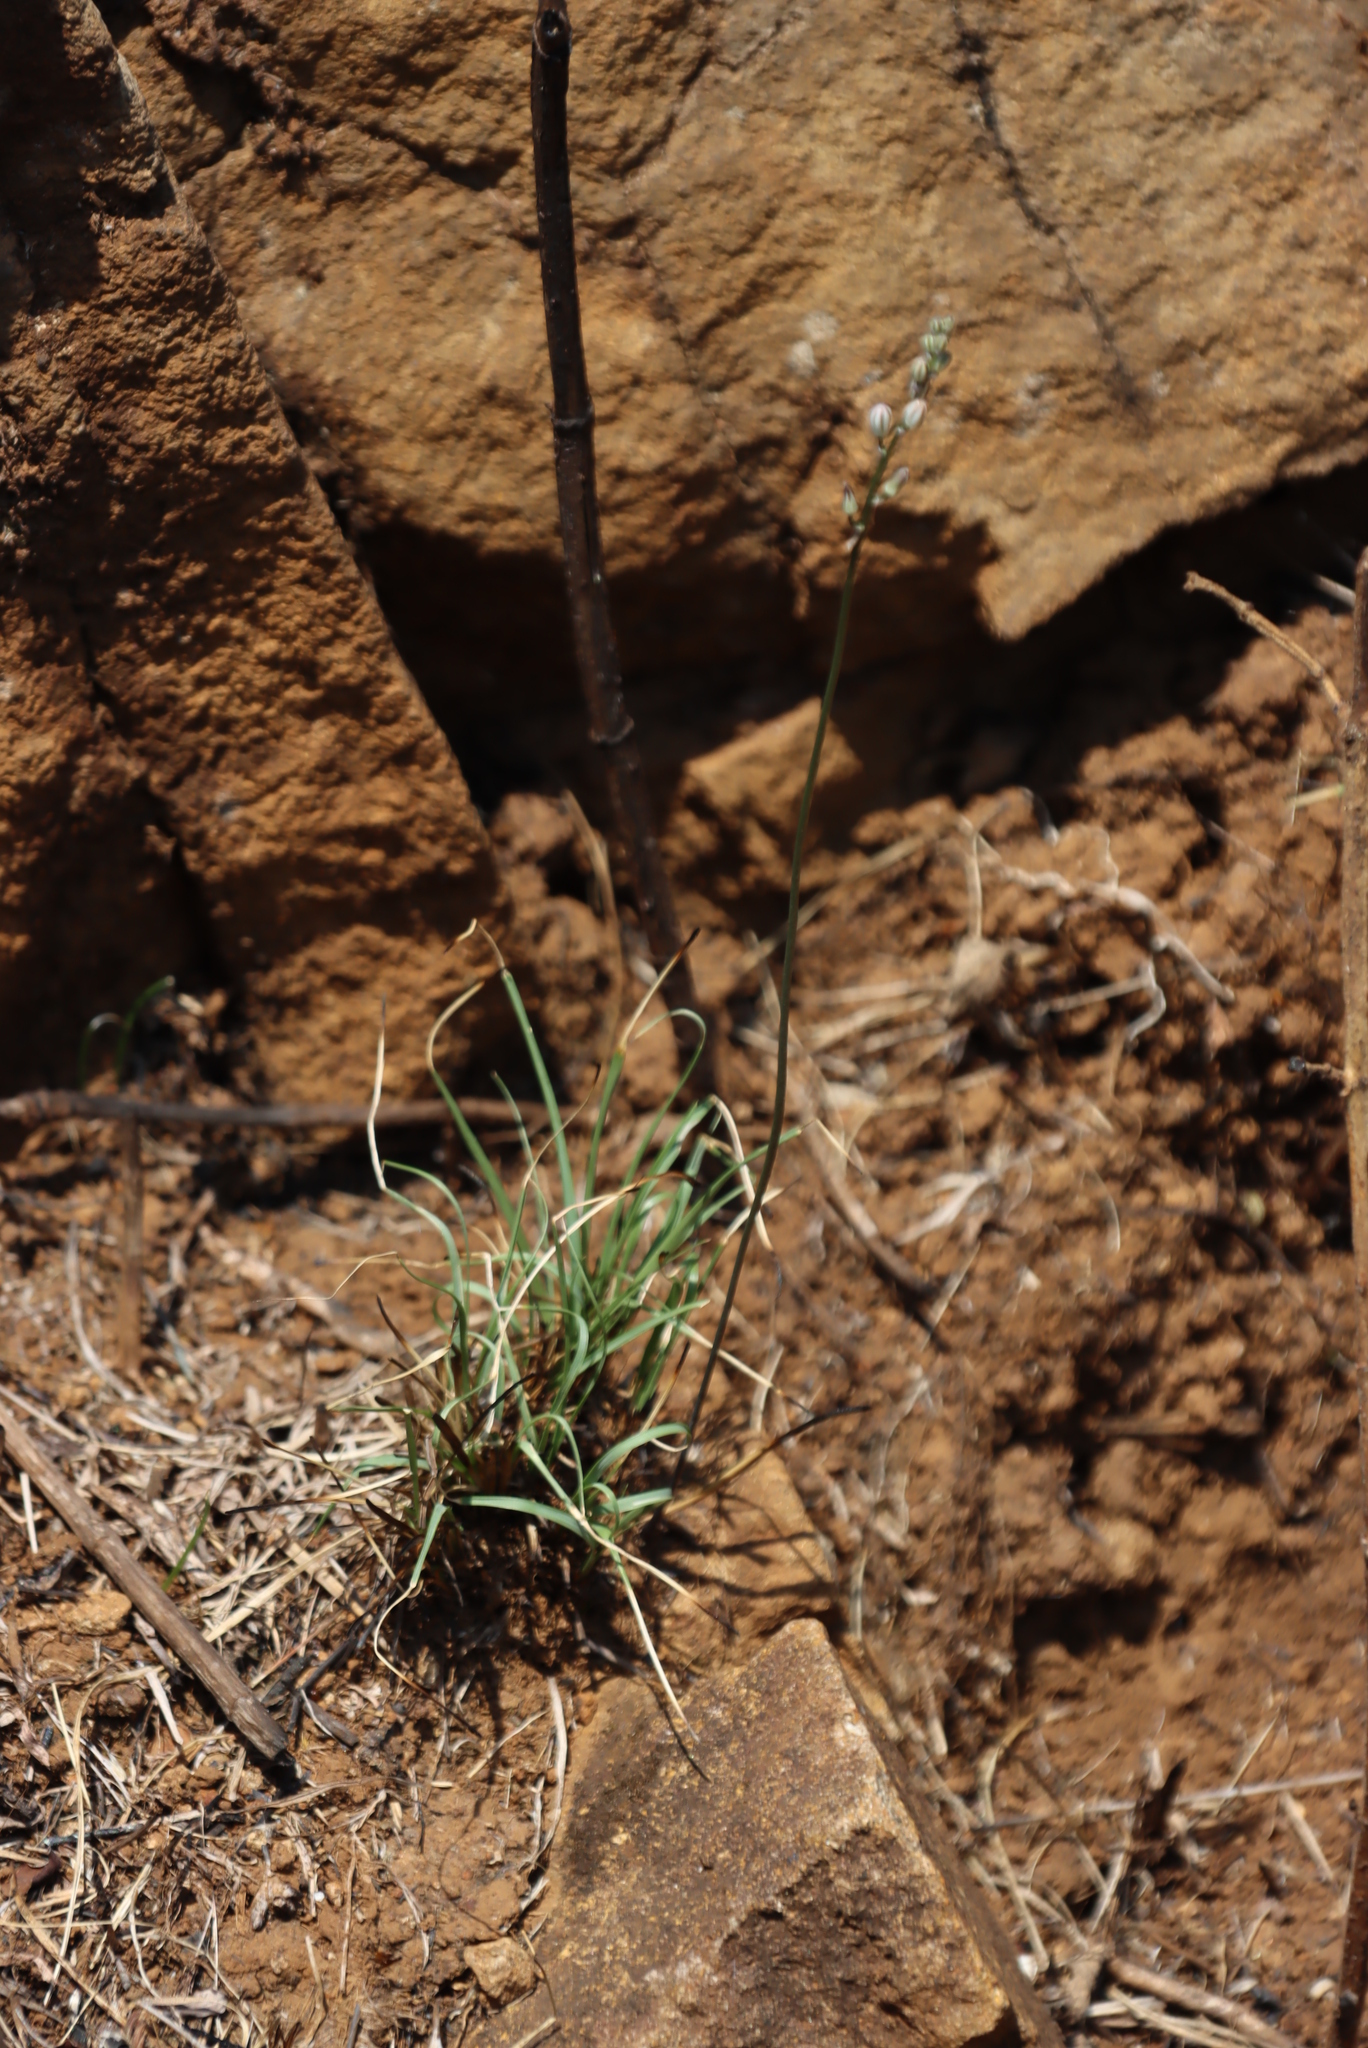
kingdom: Plantae
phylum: Tracheophyta
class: Liliopsida
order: Asparagales
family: Asparagaceae
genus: Drimia
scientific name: Drimia calcarata
